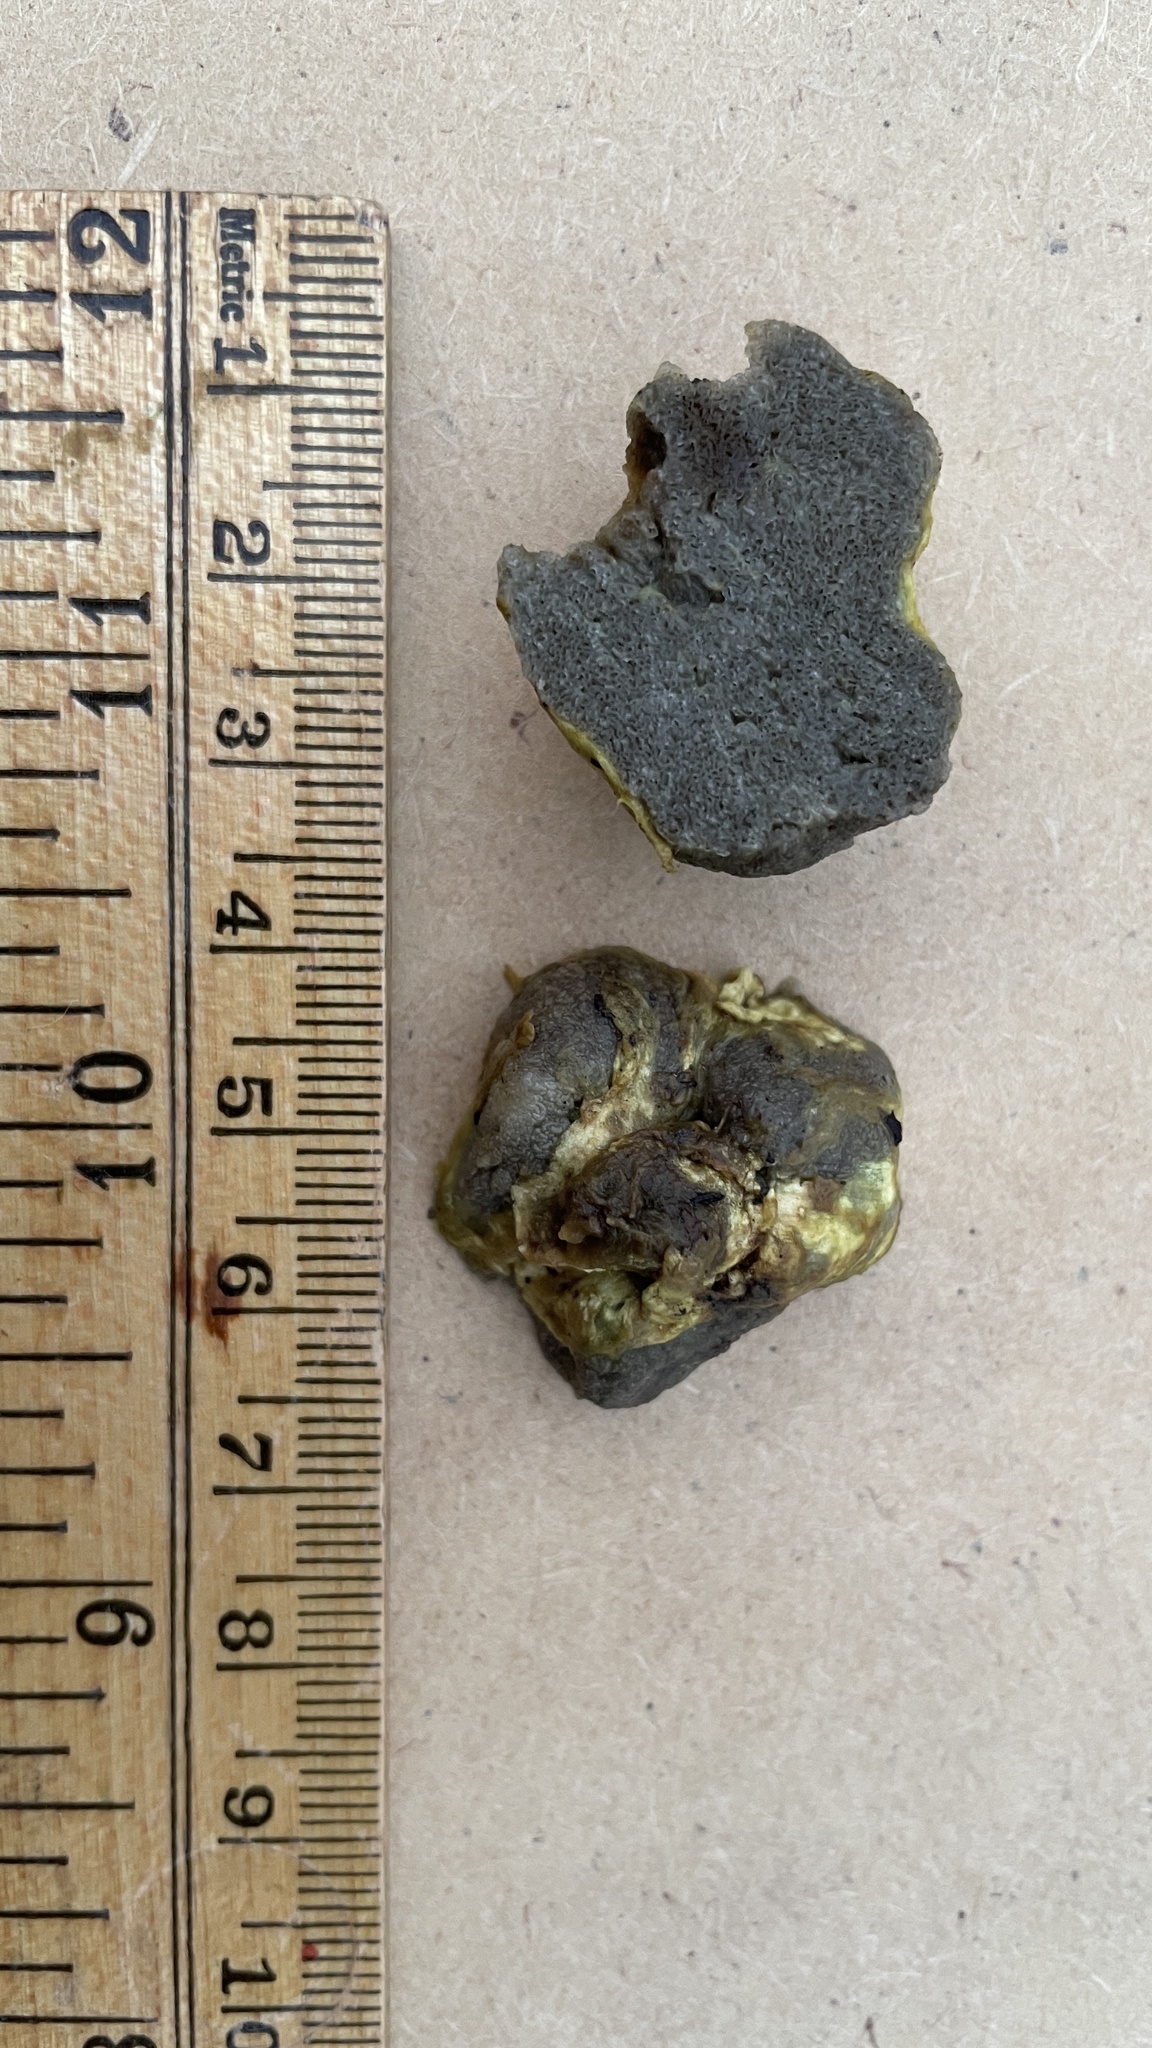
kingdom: Fungi
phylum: Basidiomycota
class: Agaricomycetes
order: Boletales
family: Suillaceae
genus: Truncocolumella
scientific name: Truncocolumella citrina
